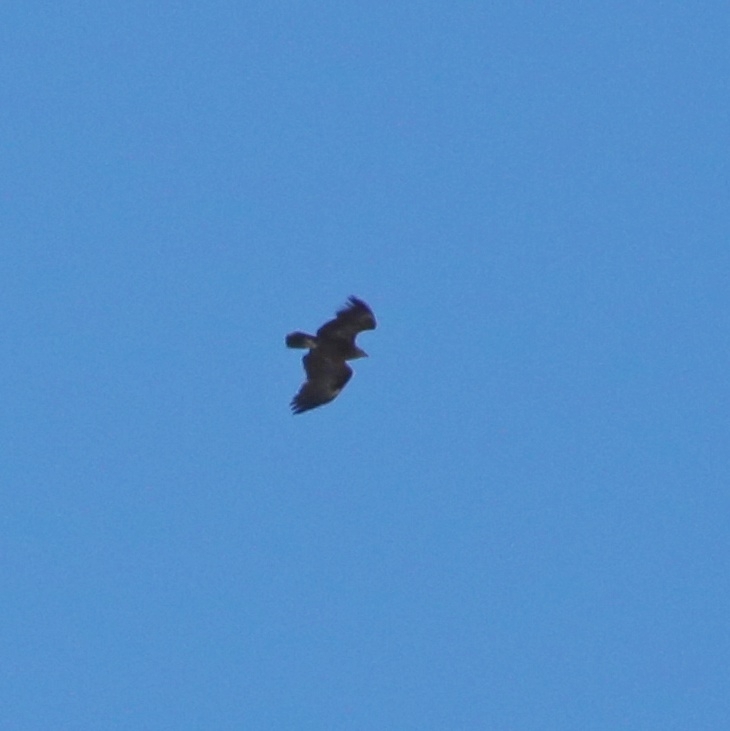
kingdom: Animalia
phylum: Chordata
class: Aves
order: Accipitriformes
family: Accipitridae
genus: Aquila
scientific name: Aquila clanga
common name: Greater spotted eagle
